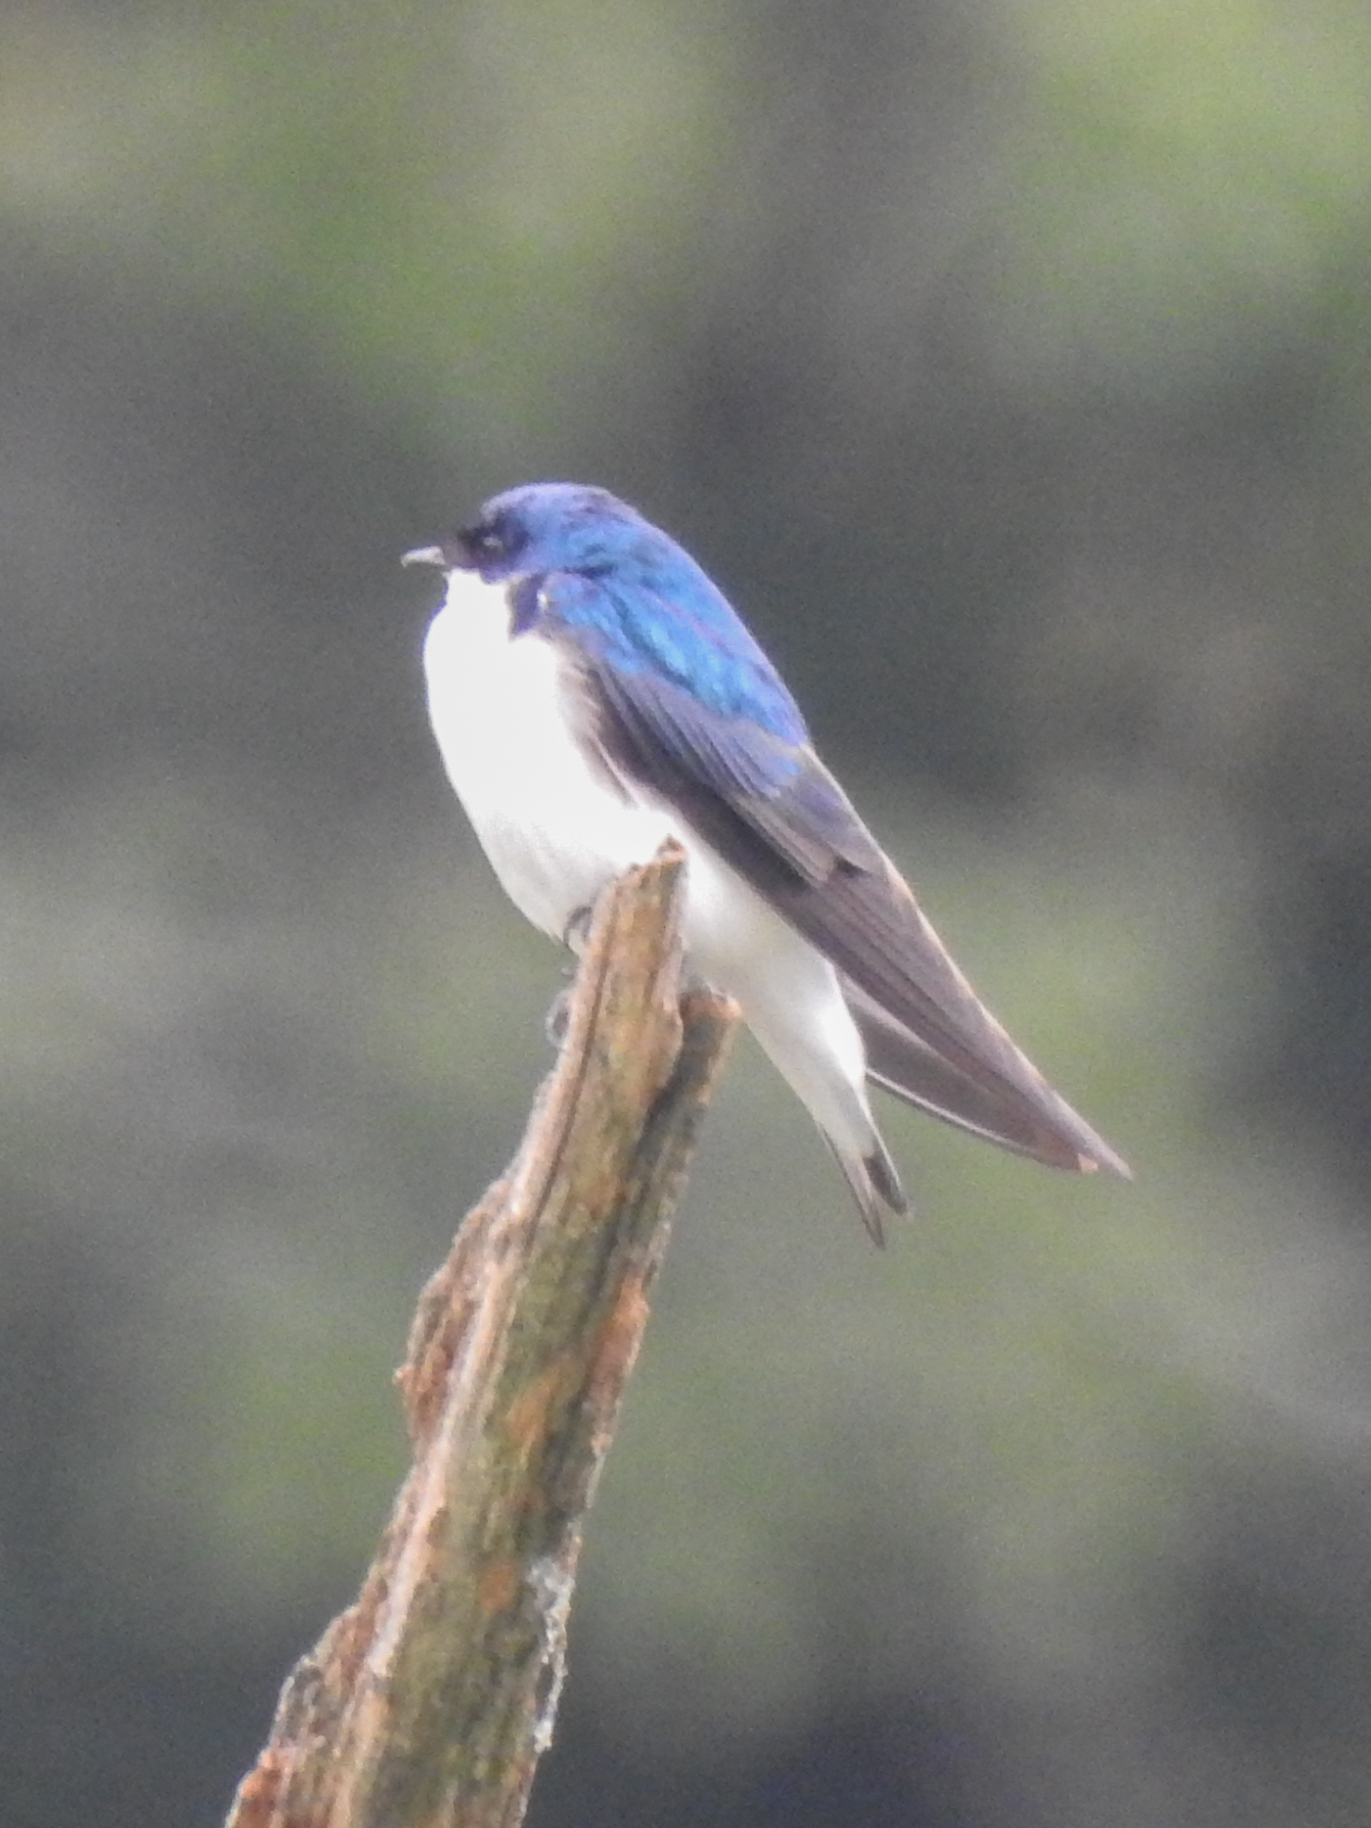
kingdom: Animalia
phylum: Chordata
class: Aves
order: Passeriformes
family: Hirundinidae
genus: Tachycineta
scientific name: Tachycineta bicolor
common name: Tree swallow
